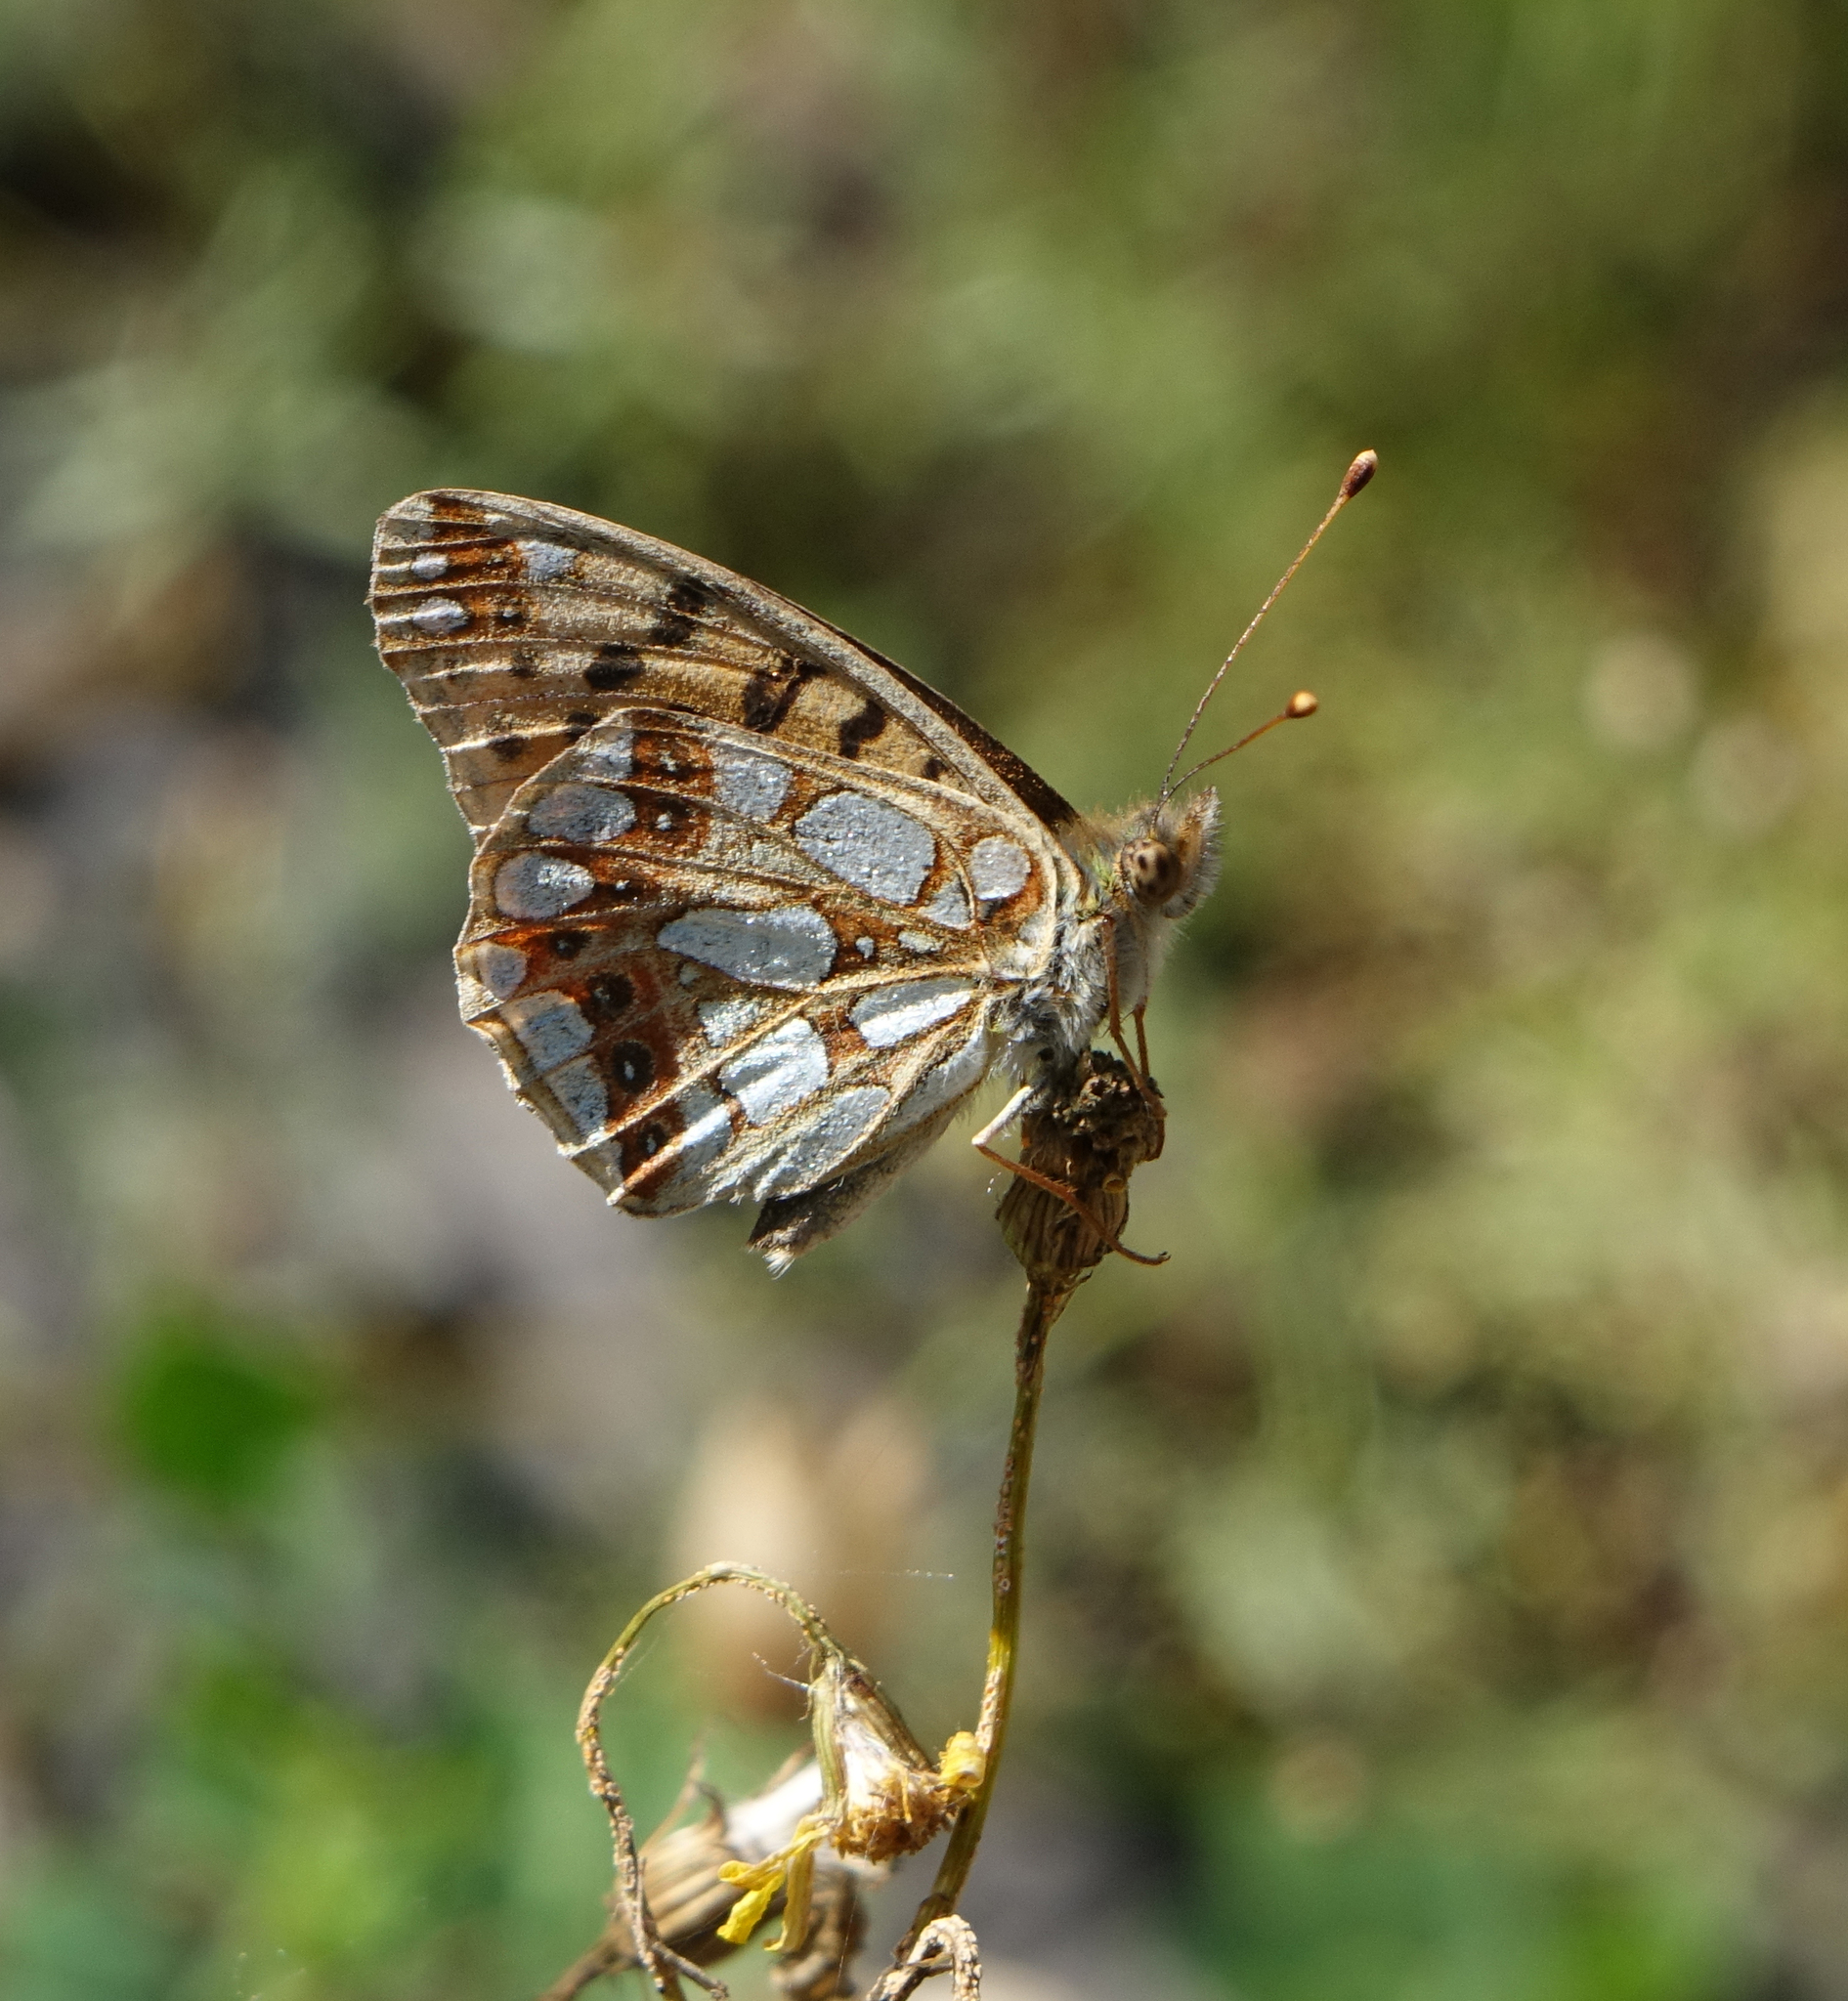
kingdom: Animalia
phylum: Arthropoda
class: Insecta
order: Lepidoptera
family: Nymphalidae
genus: Issoria
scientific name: Issoria lathonia
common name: Queen of spain fritillary
